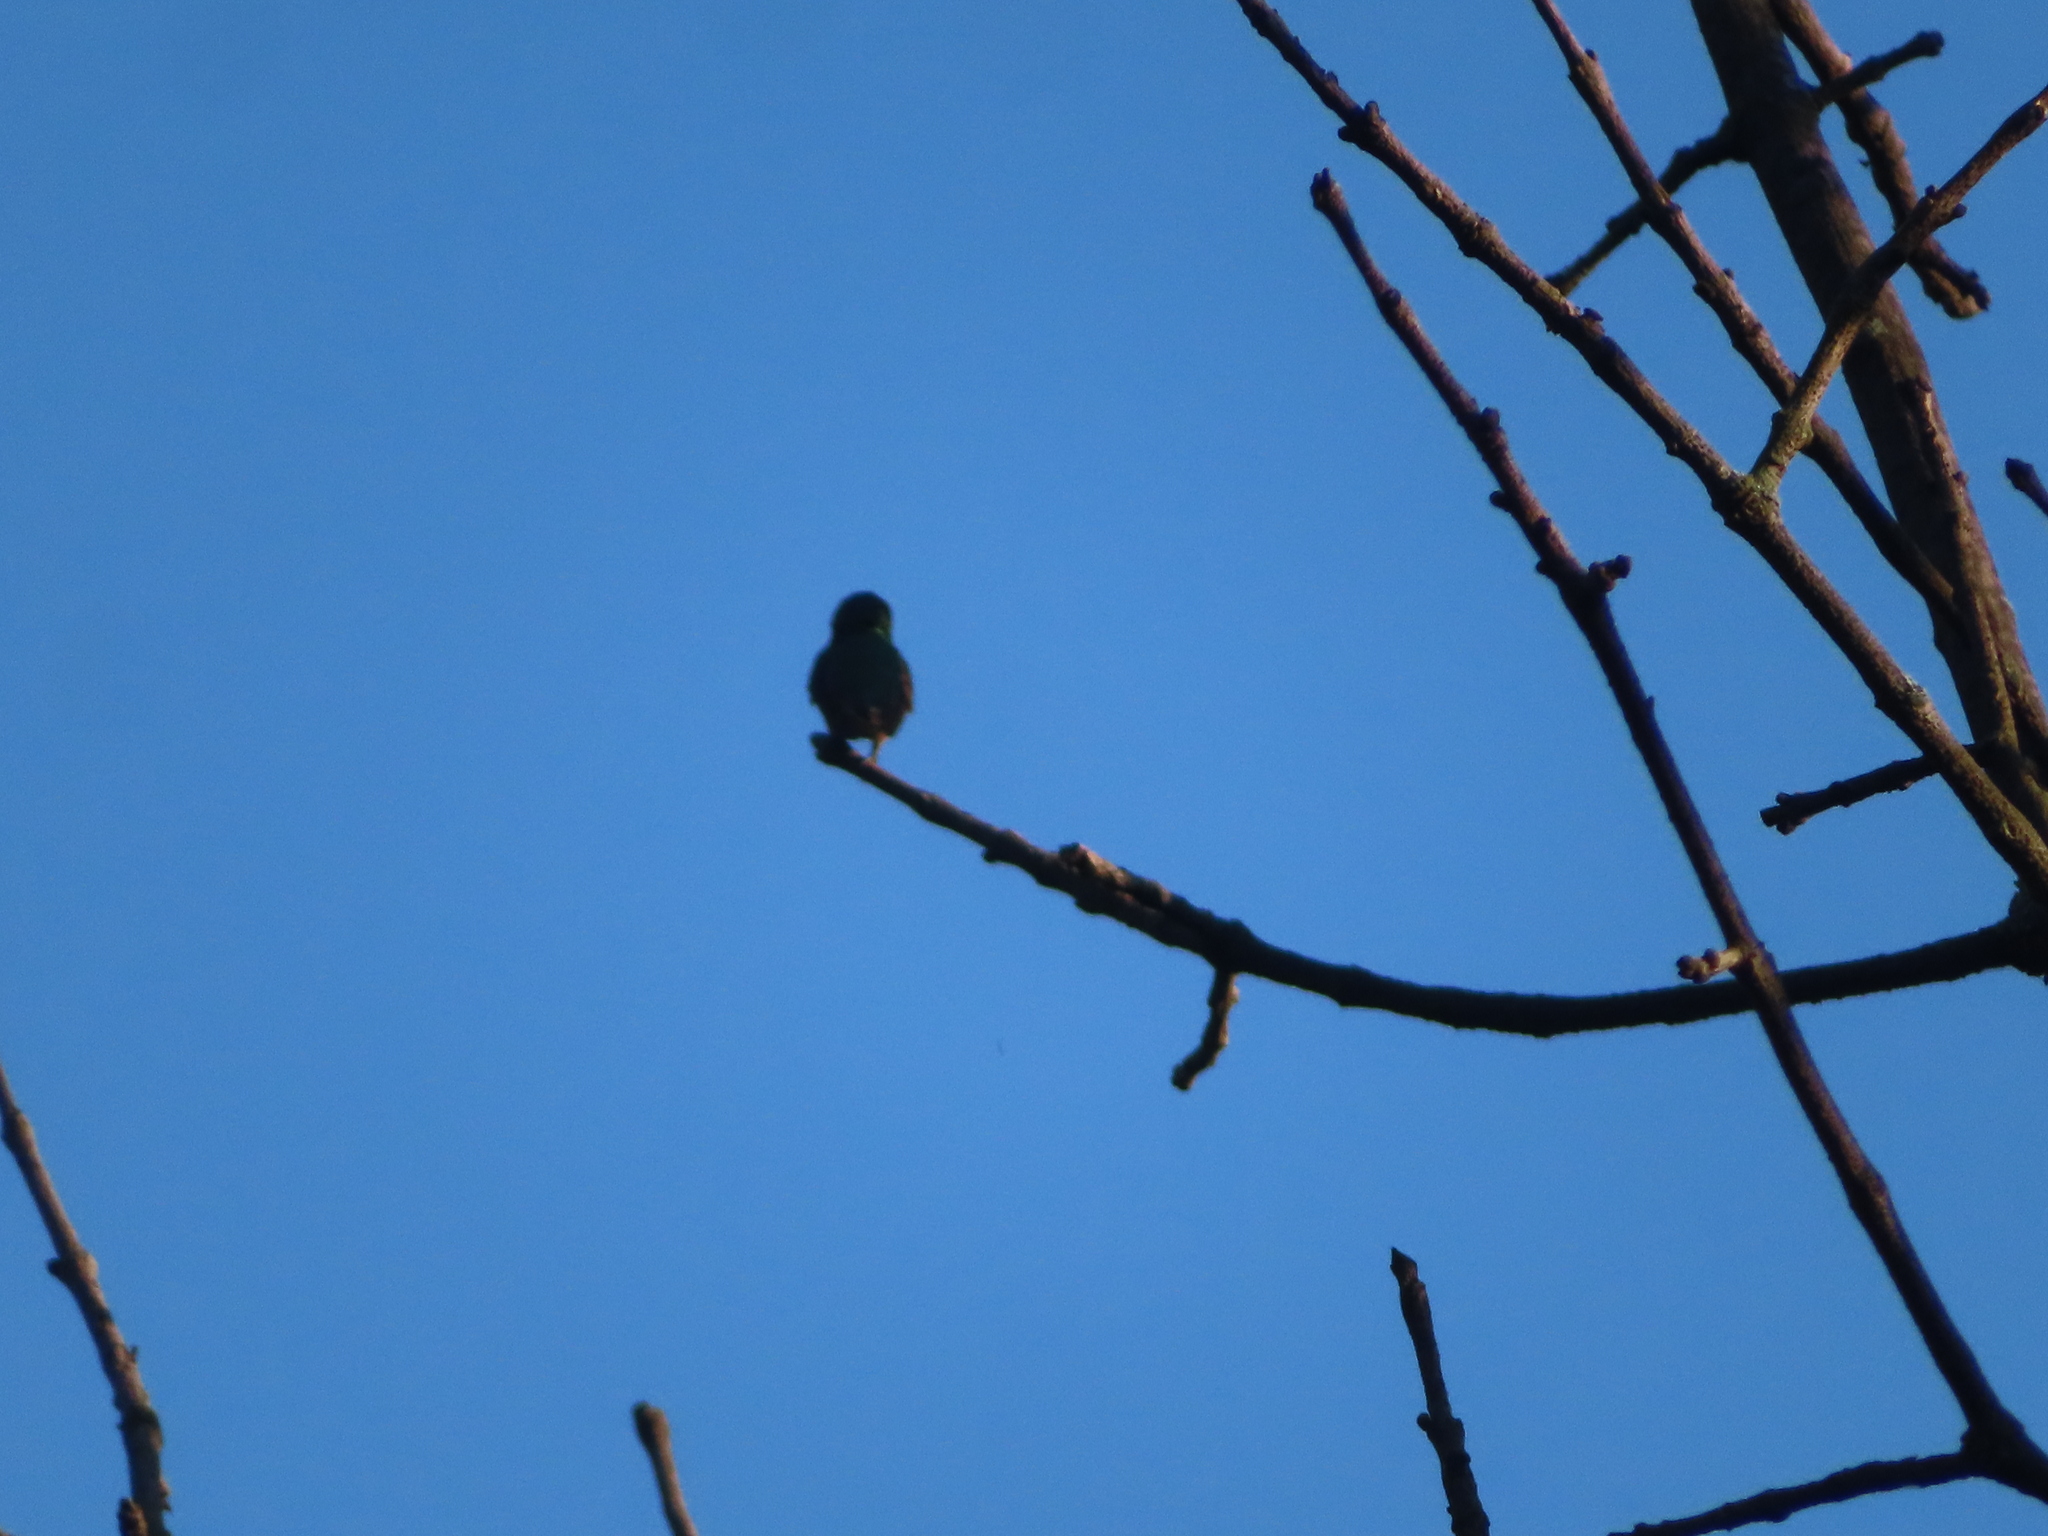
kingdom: Animalia
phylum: Chordata
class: Aves
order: Apodiformes
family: Trochilidae
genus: Archilochus
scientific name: Archilochus colubris
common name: Ruby-throated hummingbird
